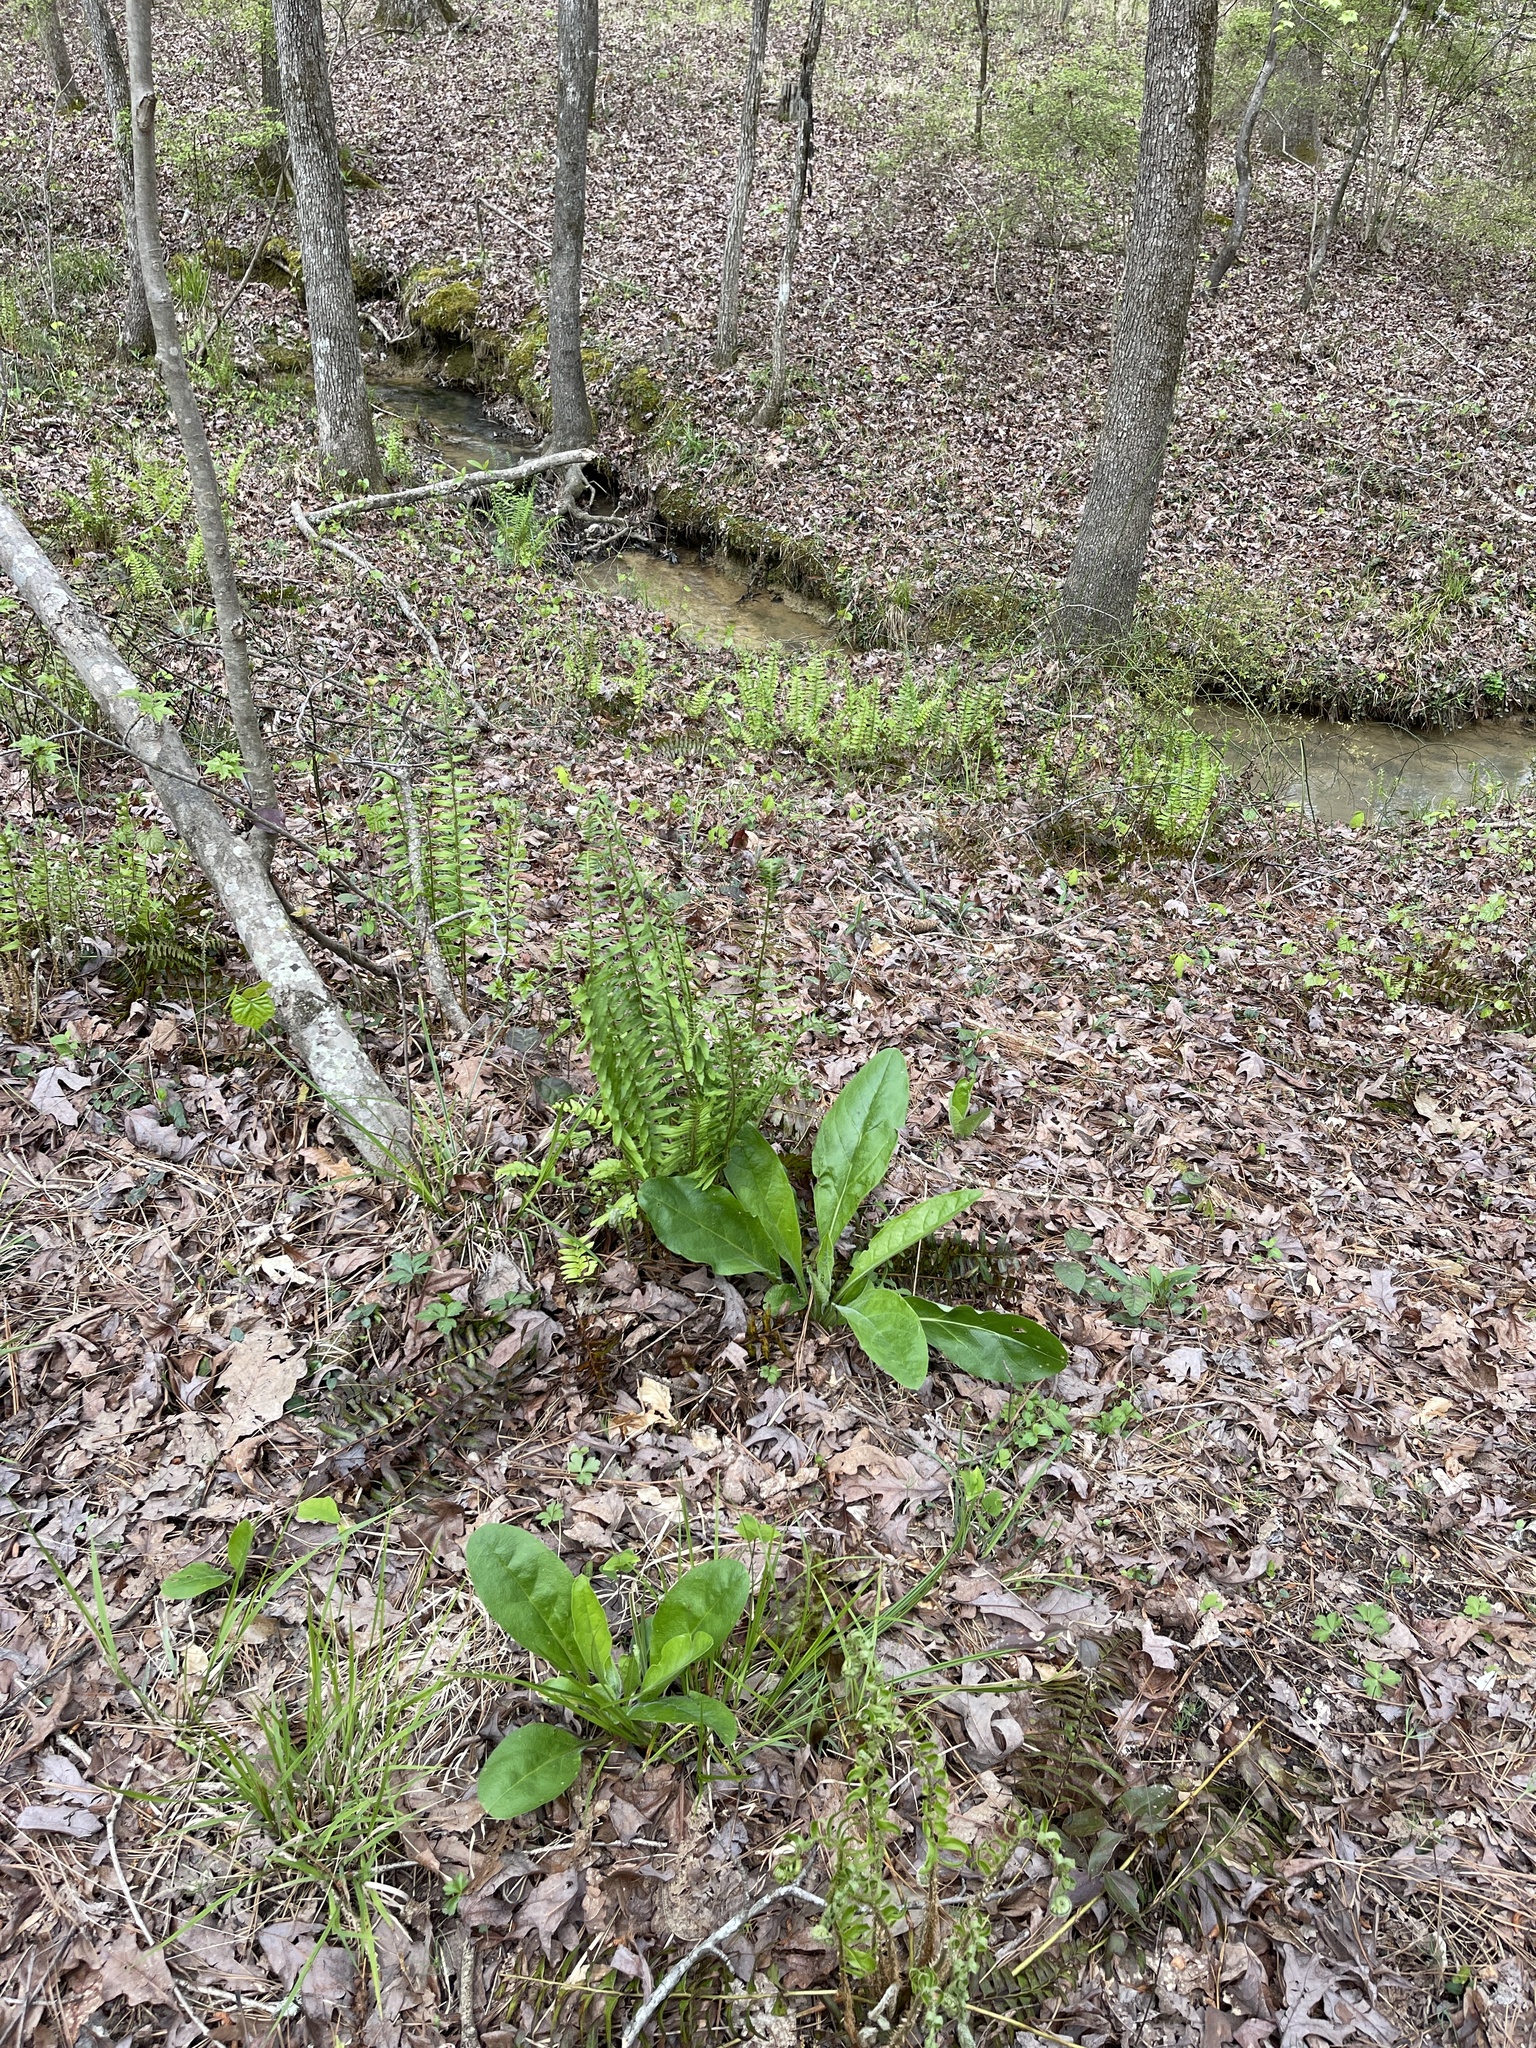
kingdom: Plantae
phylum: Tracheophyta
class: Magnoliopsida
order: Boraginales
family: Boraginaceae
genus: Andersonglossum
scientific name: Andersonglossum virginianum
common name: Wild comfrey
